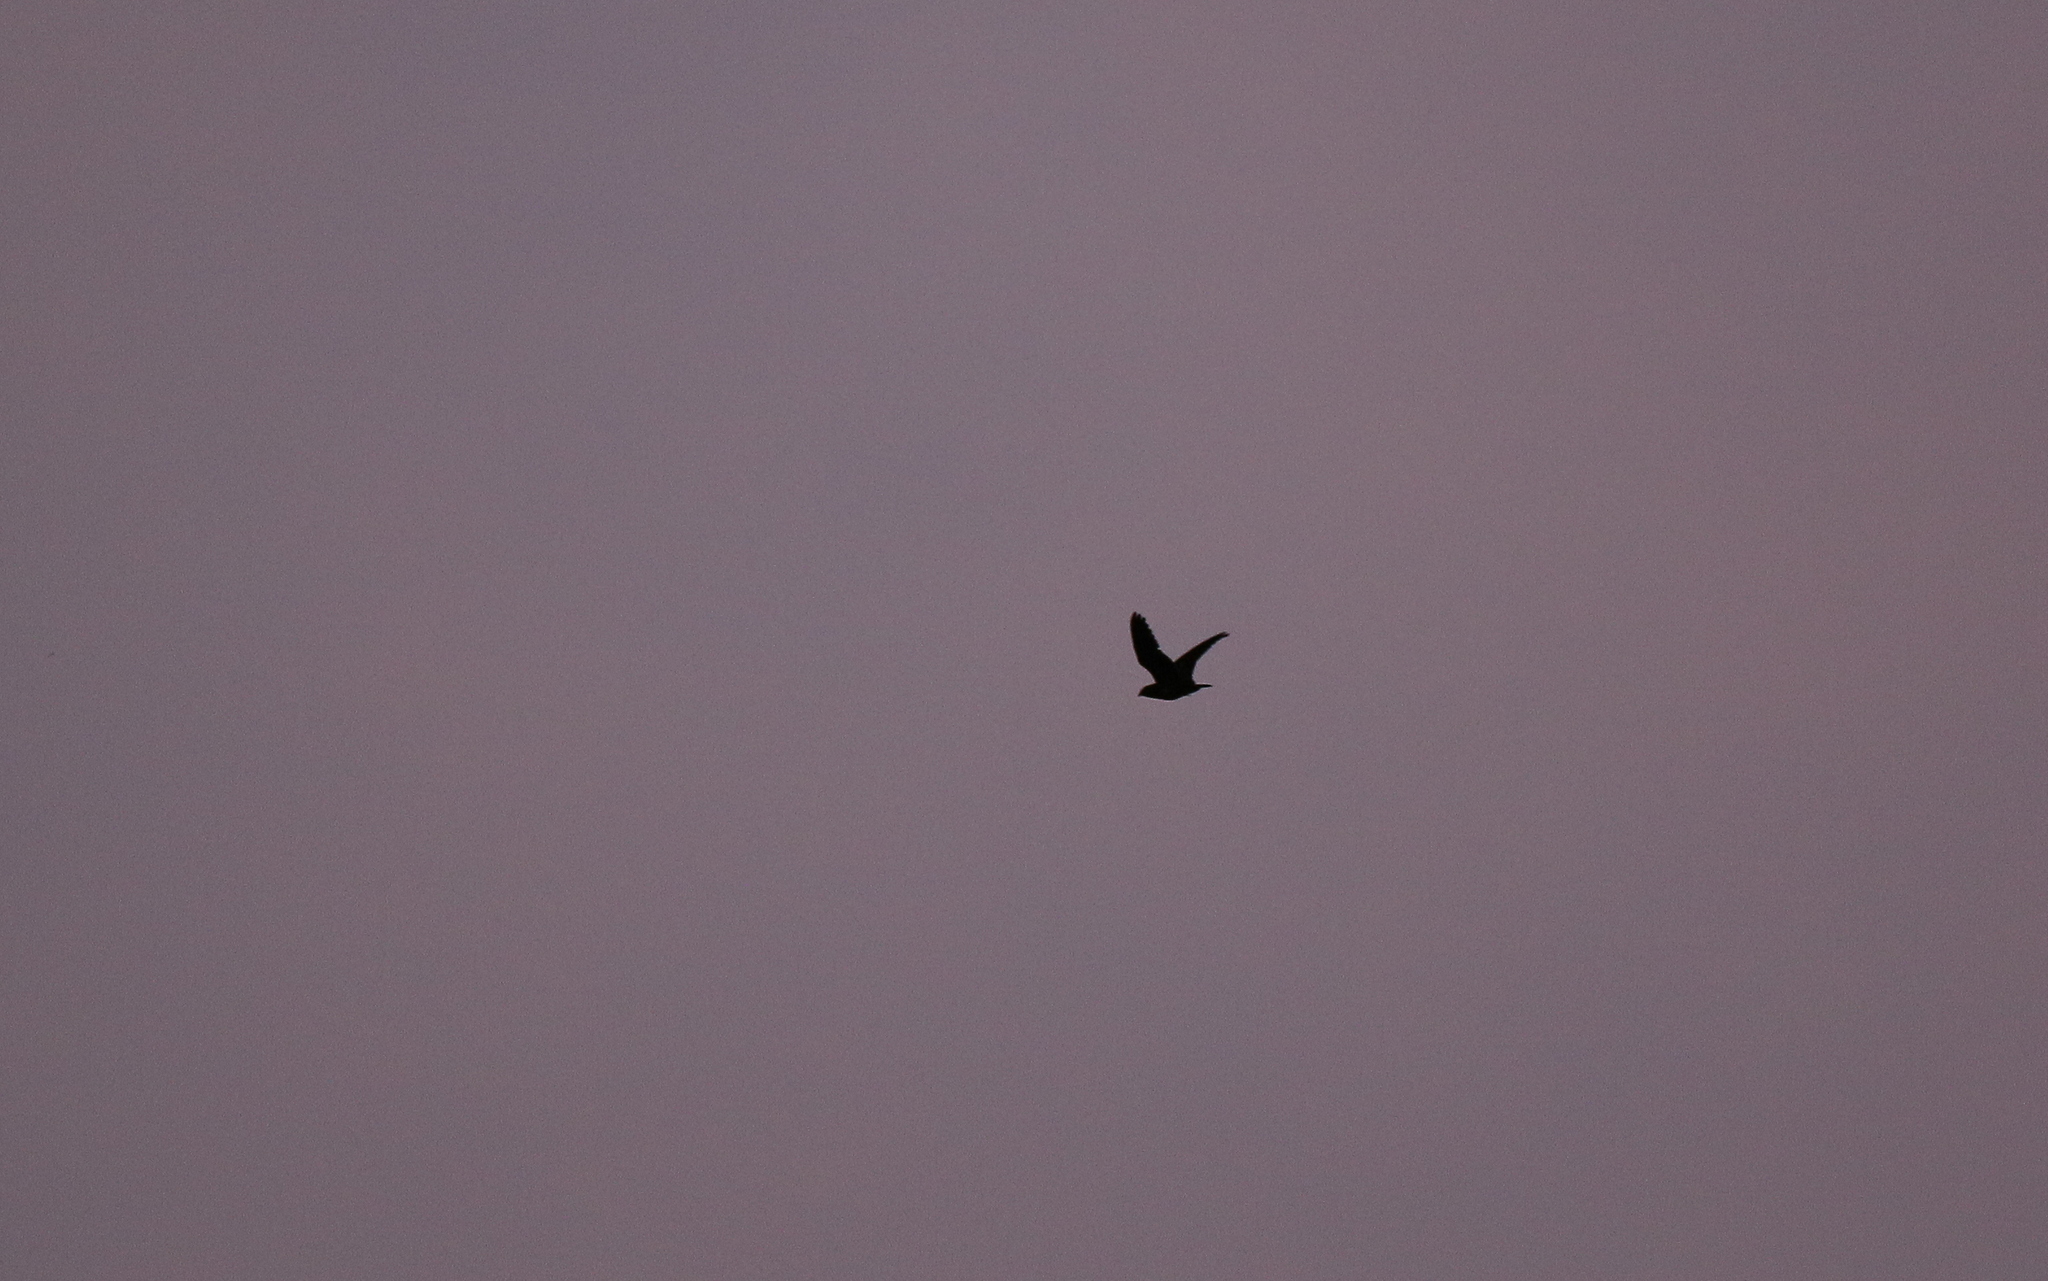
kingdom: Animalia
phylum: Chordata
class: Aves
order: Caprimulgiformes
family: Caprimulgidae
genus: Lurocalis
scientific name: Lurocalis rufiventris
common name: Rufous-bellied nighthawk
